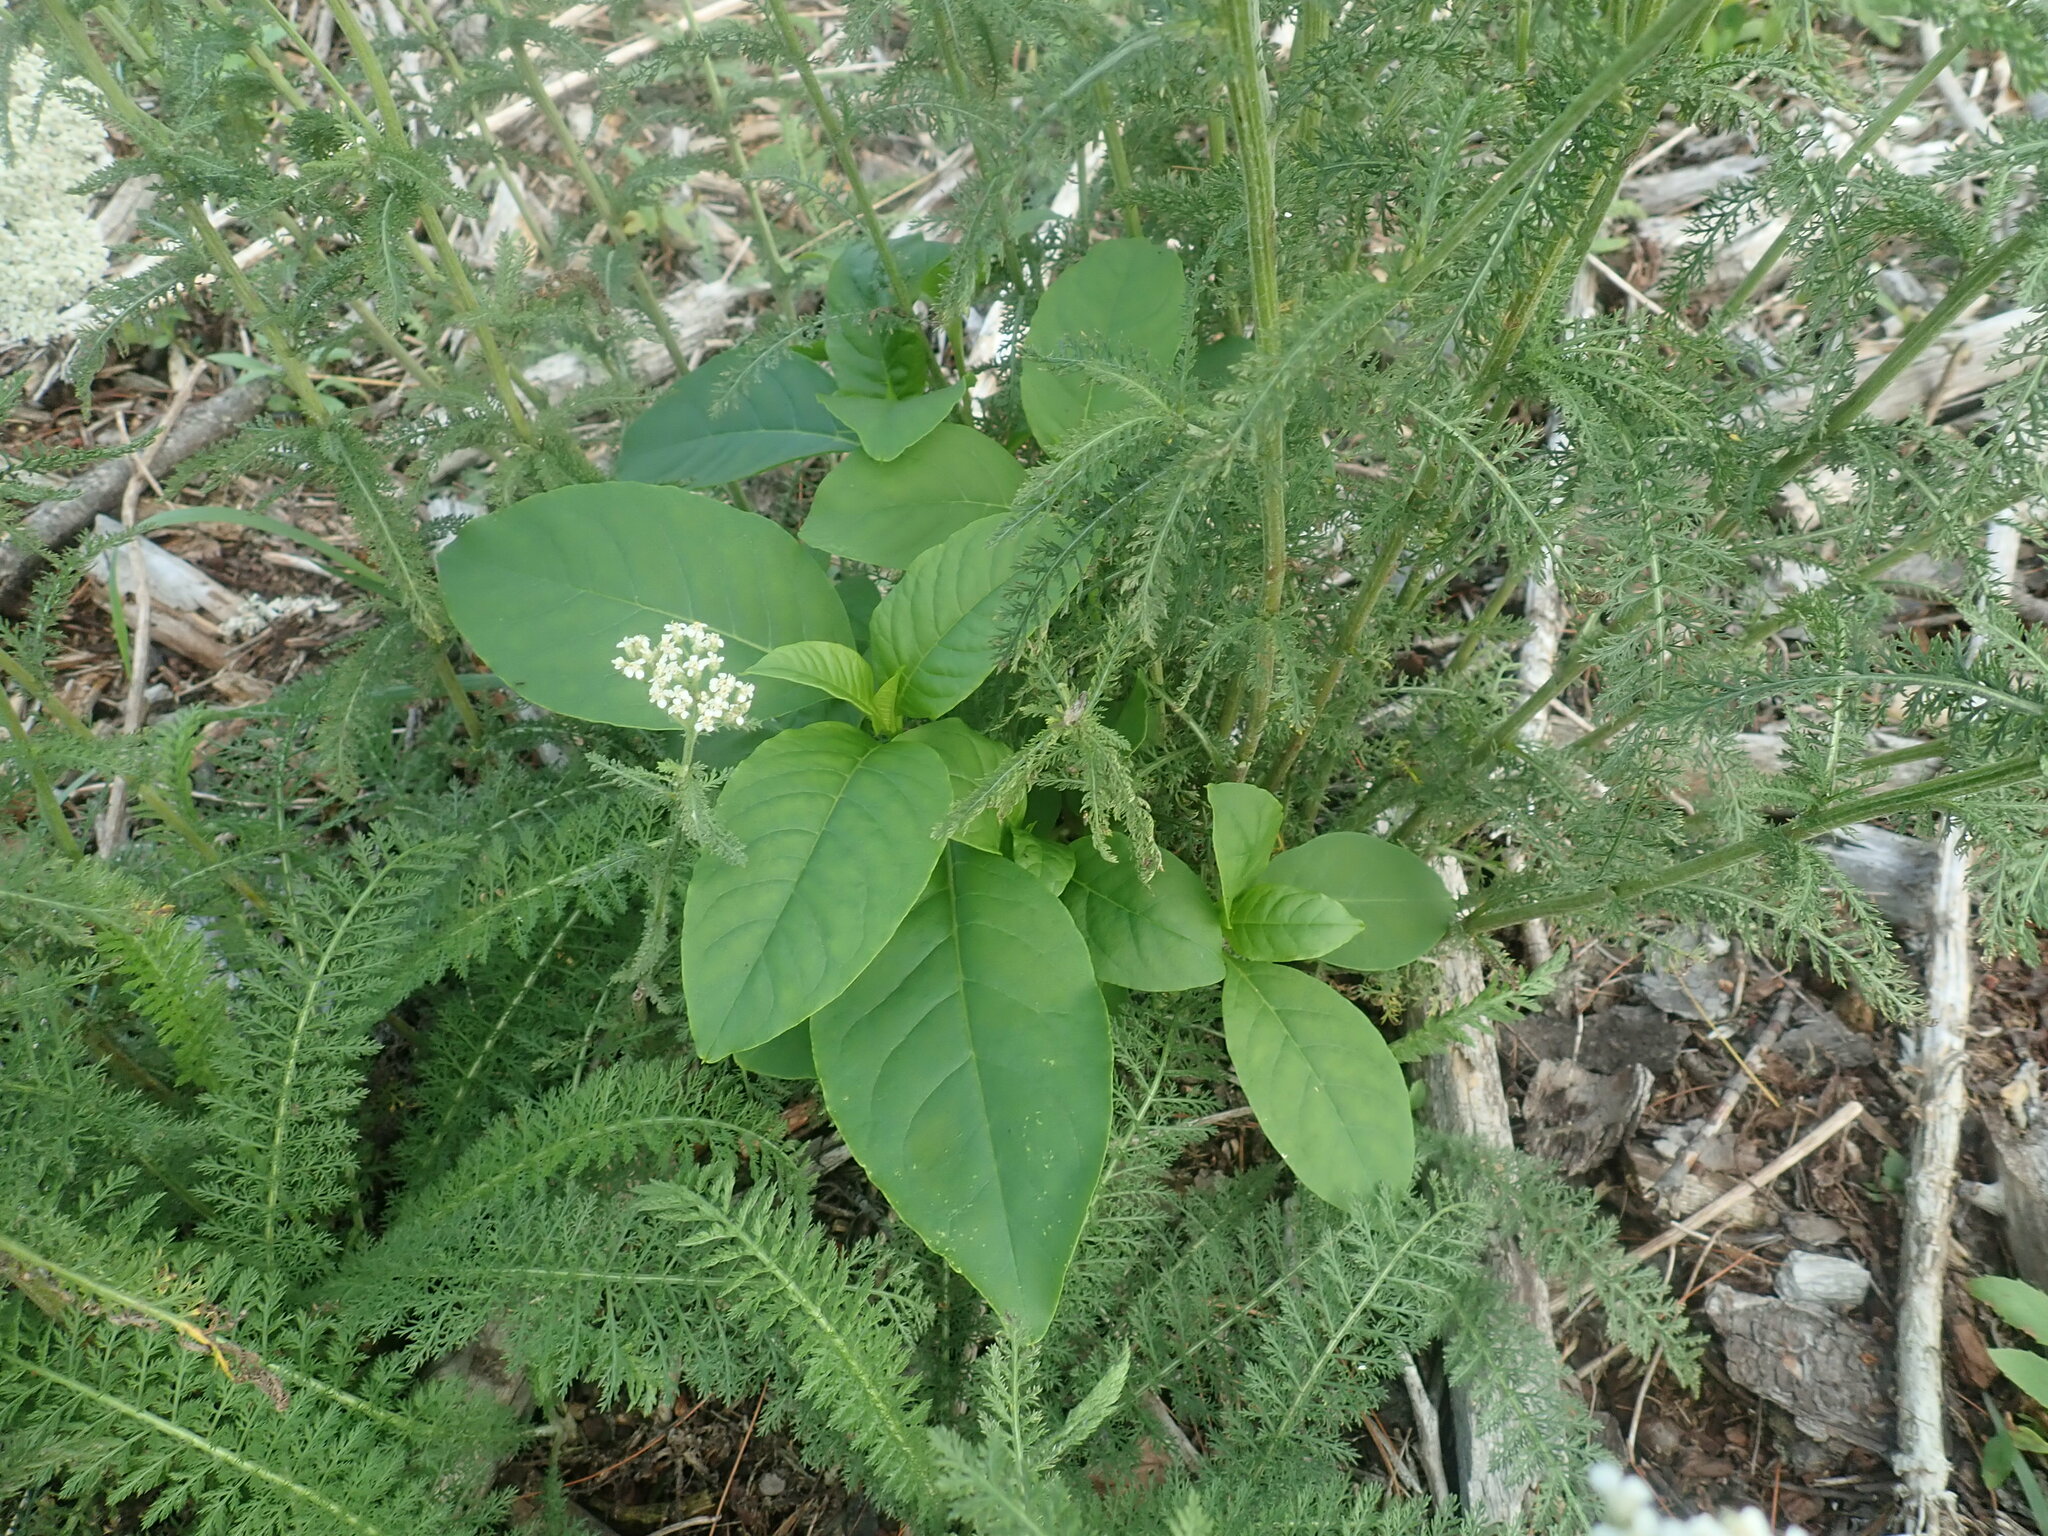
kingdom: Plantae
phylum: Tracheophyta
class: Magnoliopsida
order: Caryophyllales
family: Phytolaccaceae
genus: Phytolacca
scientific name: Phytolacca americana
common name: American pokeweed
